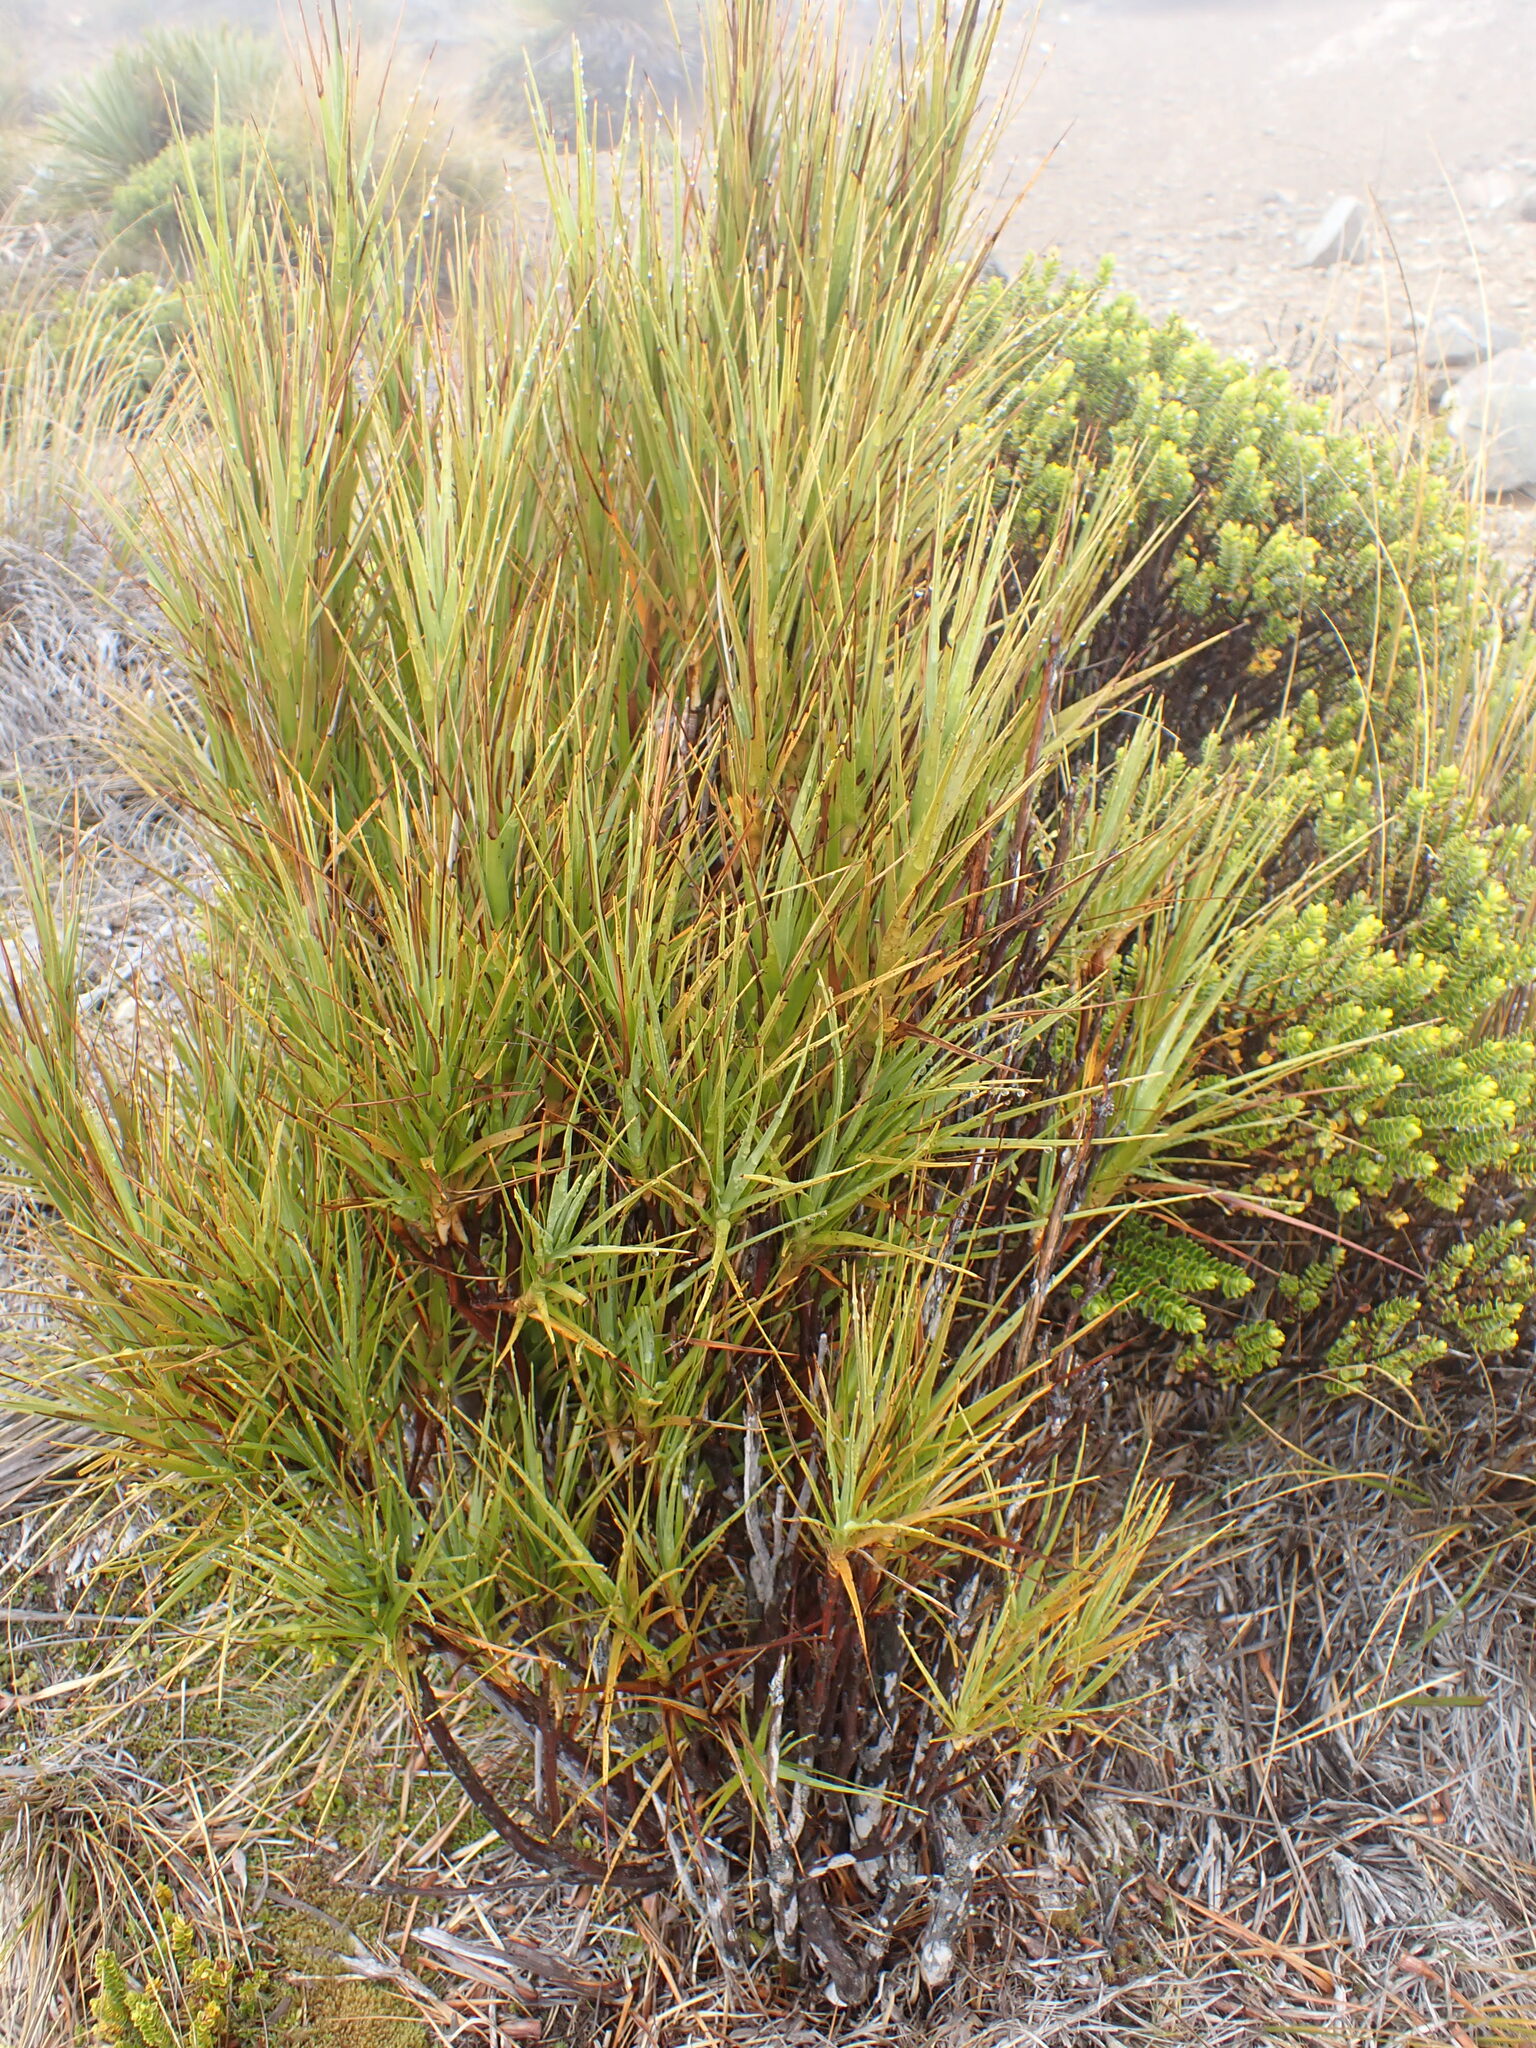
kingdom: Plantae
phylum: Tracheophyta
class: Magnoliopsida
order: Ericales
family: Ericaceae
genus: Dracophyllum
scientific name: Dracophyllum longifolium
